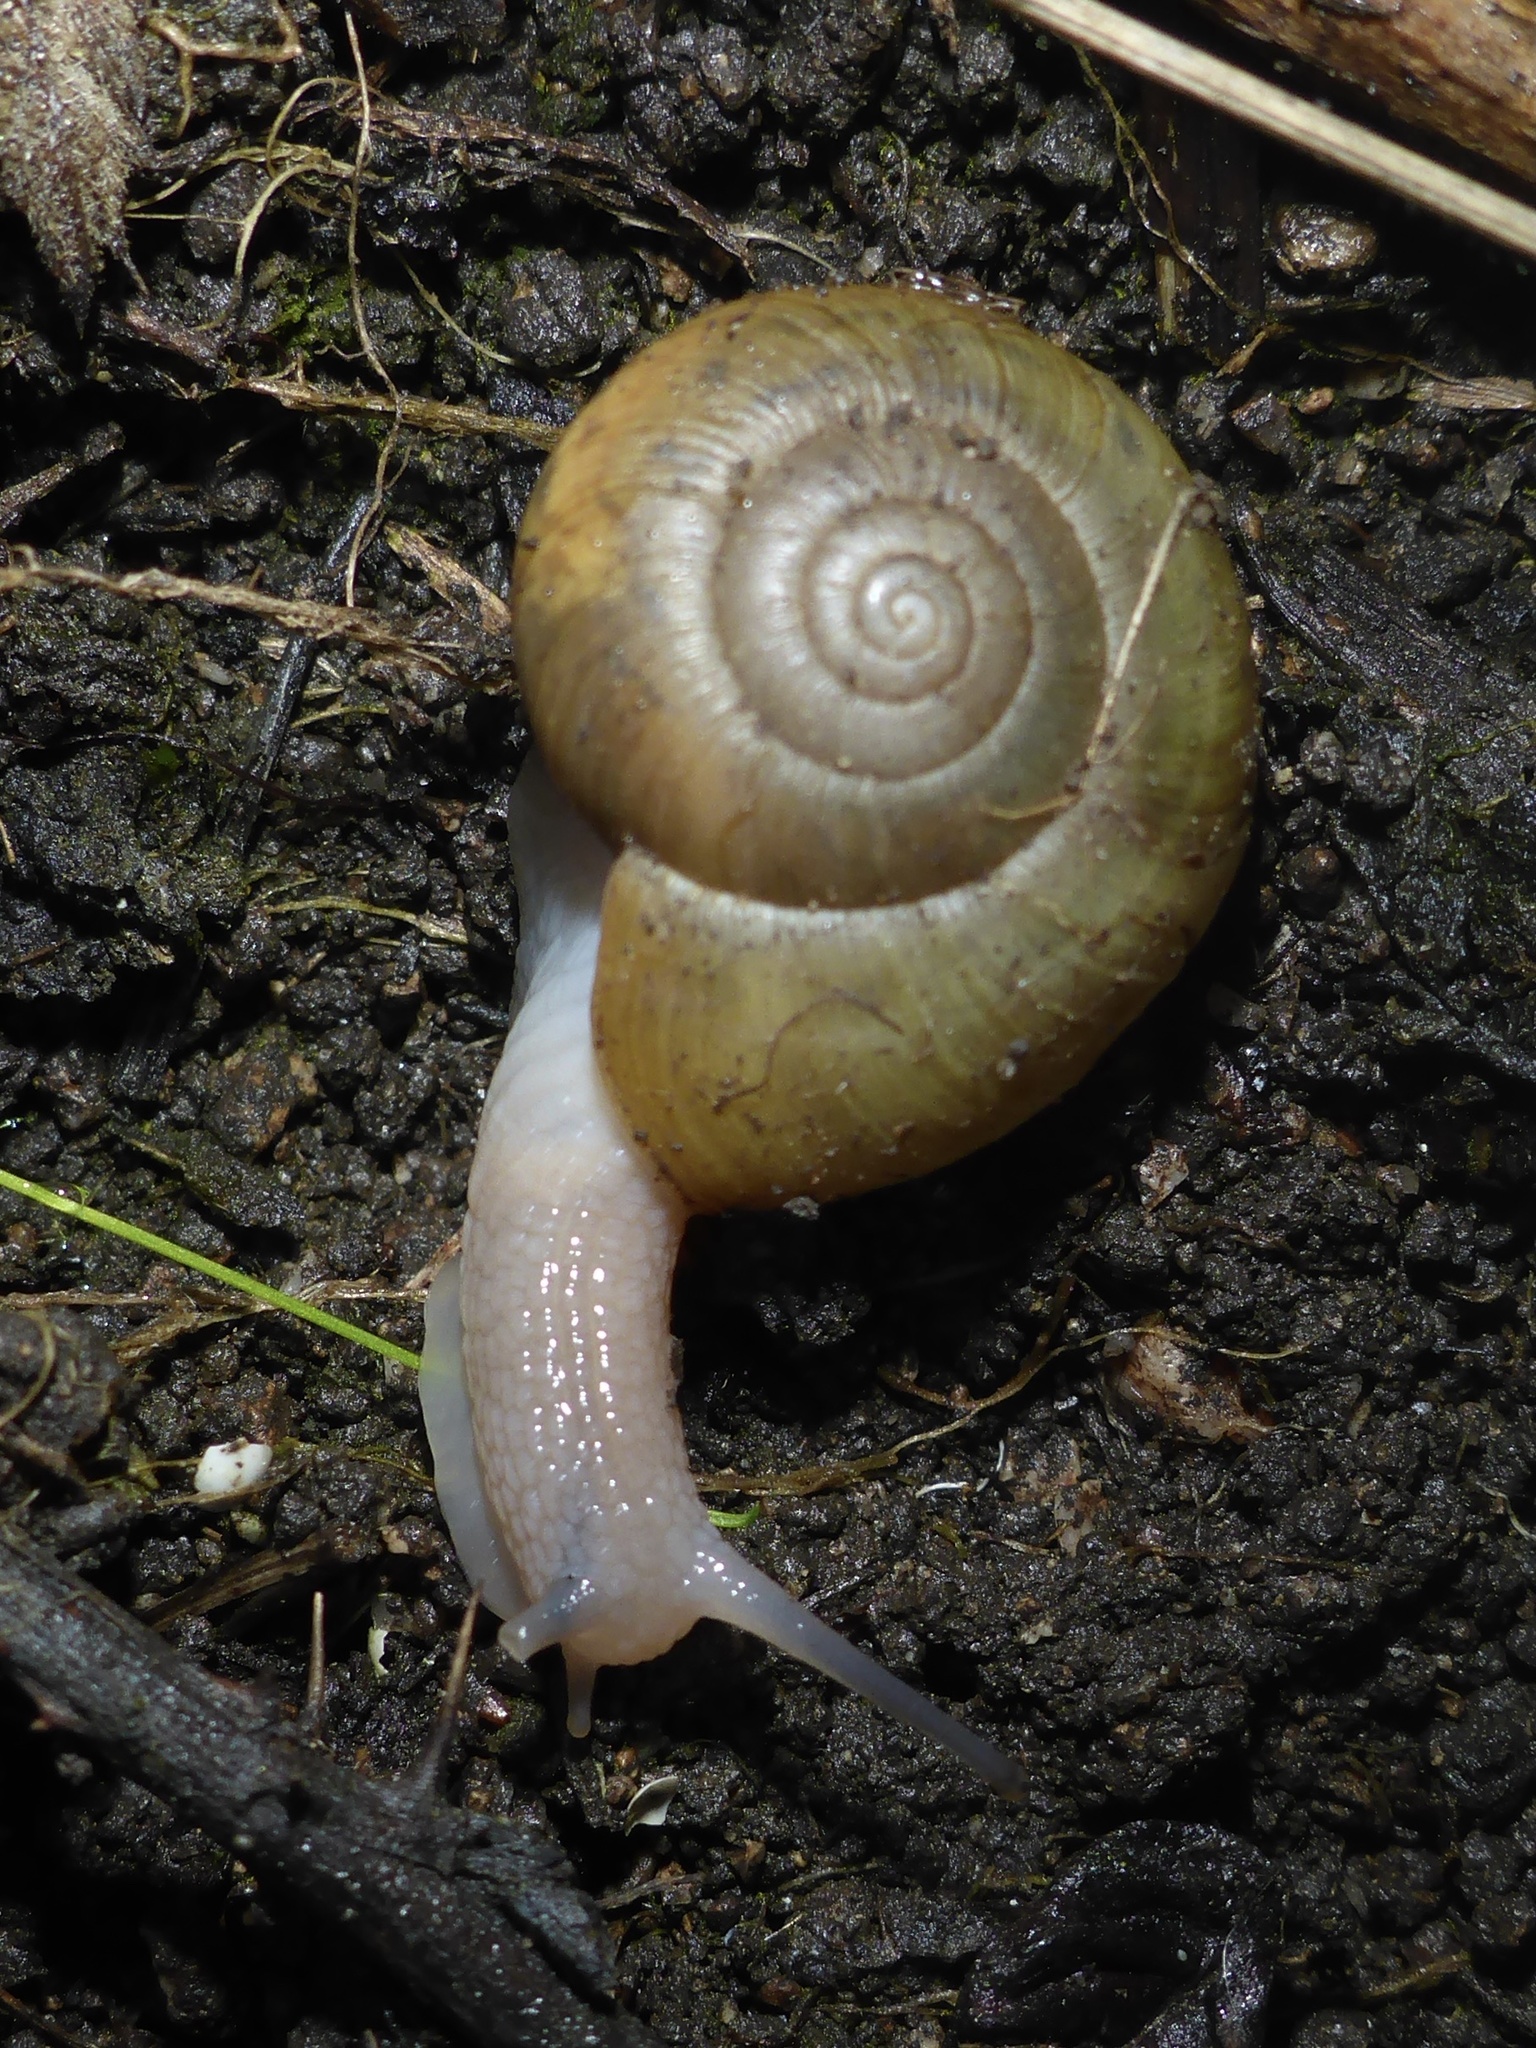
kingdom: Animalia
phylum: Mollusca
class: Gastropoda
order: Stylommatophora
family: Haplotrematidae
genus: Haplotrema
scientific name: Haplotrema minimum
